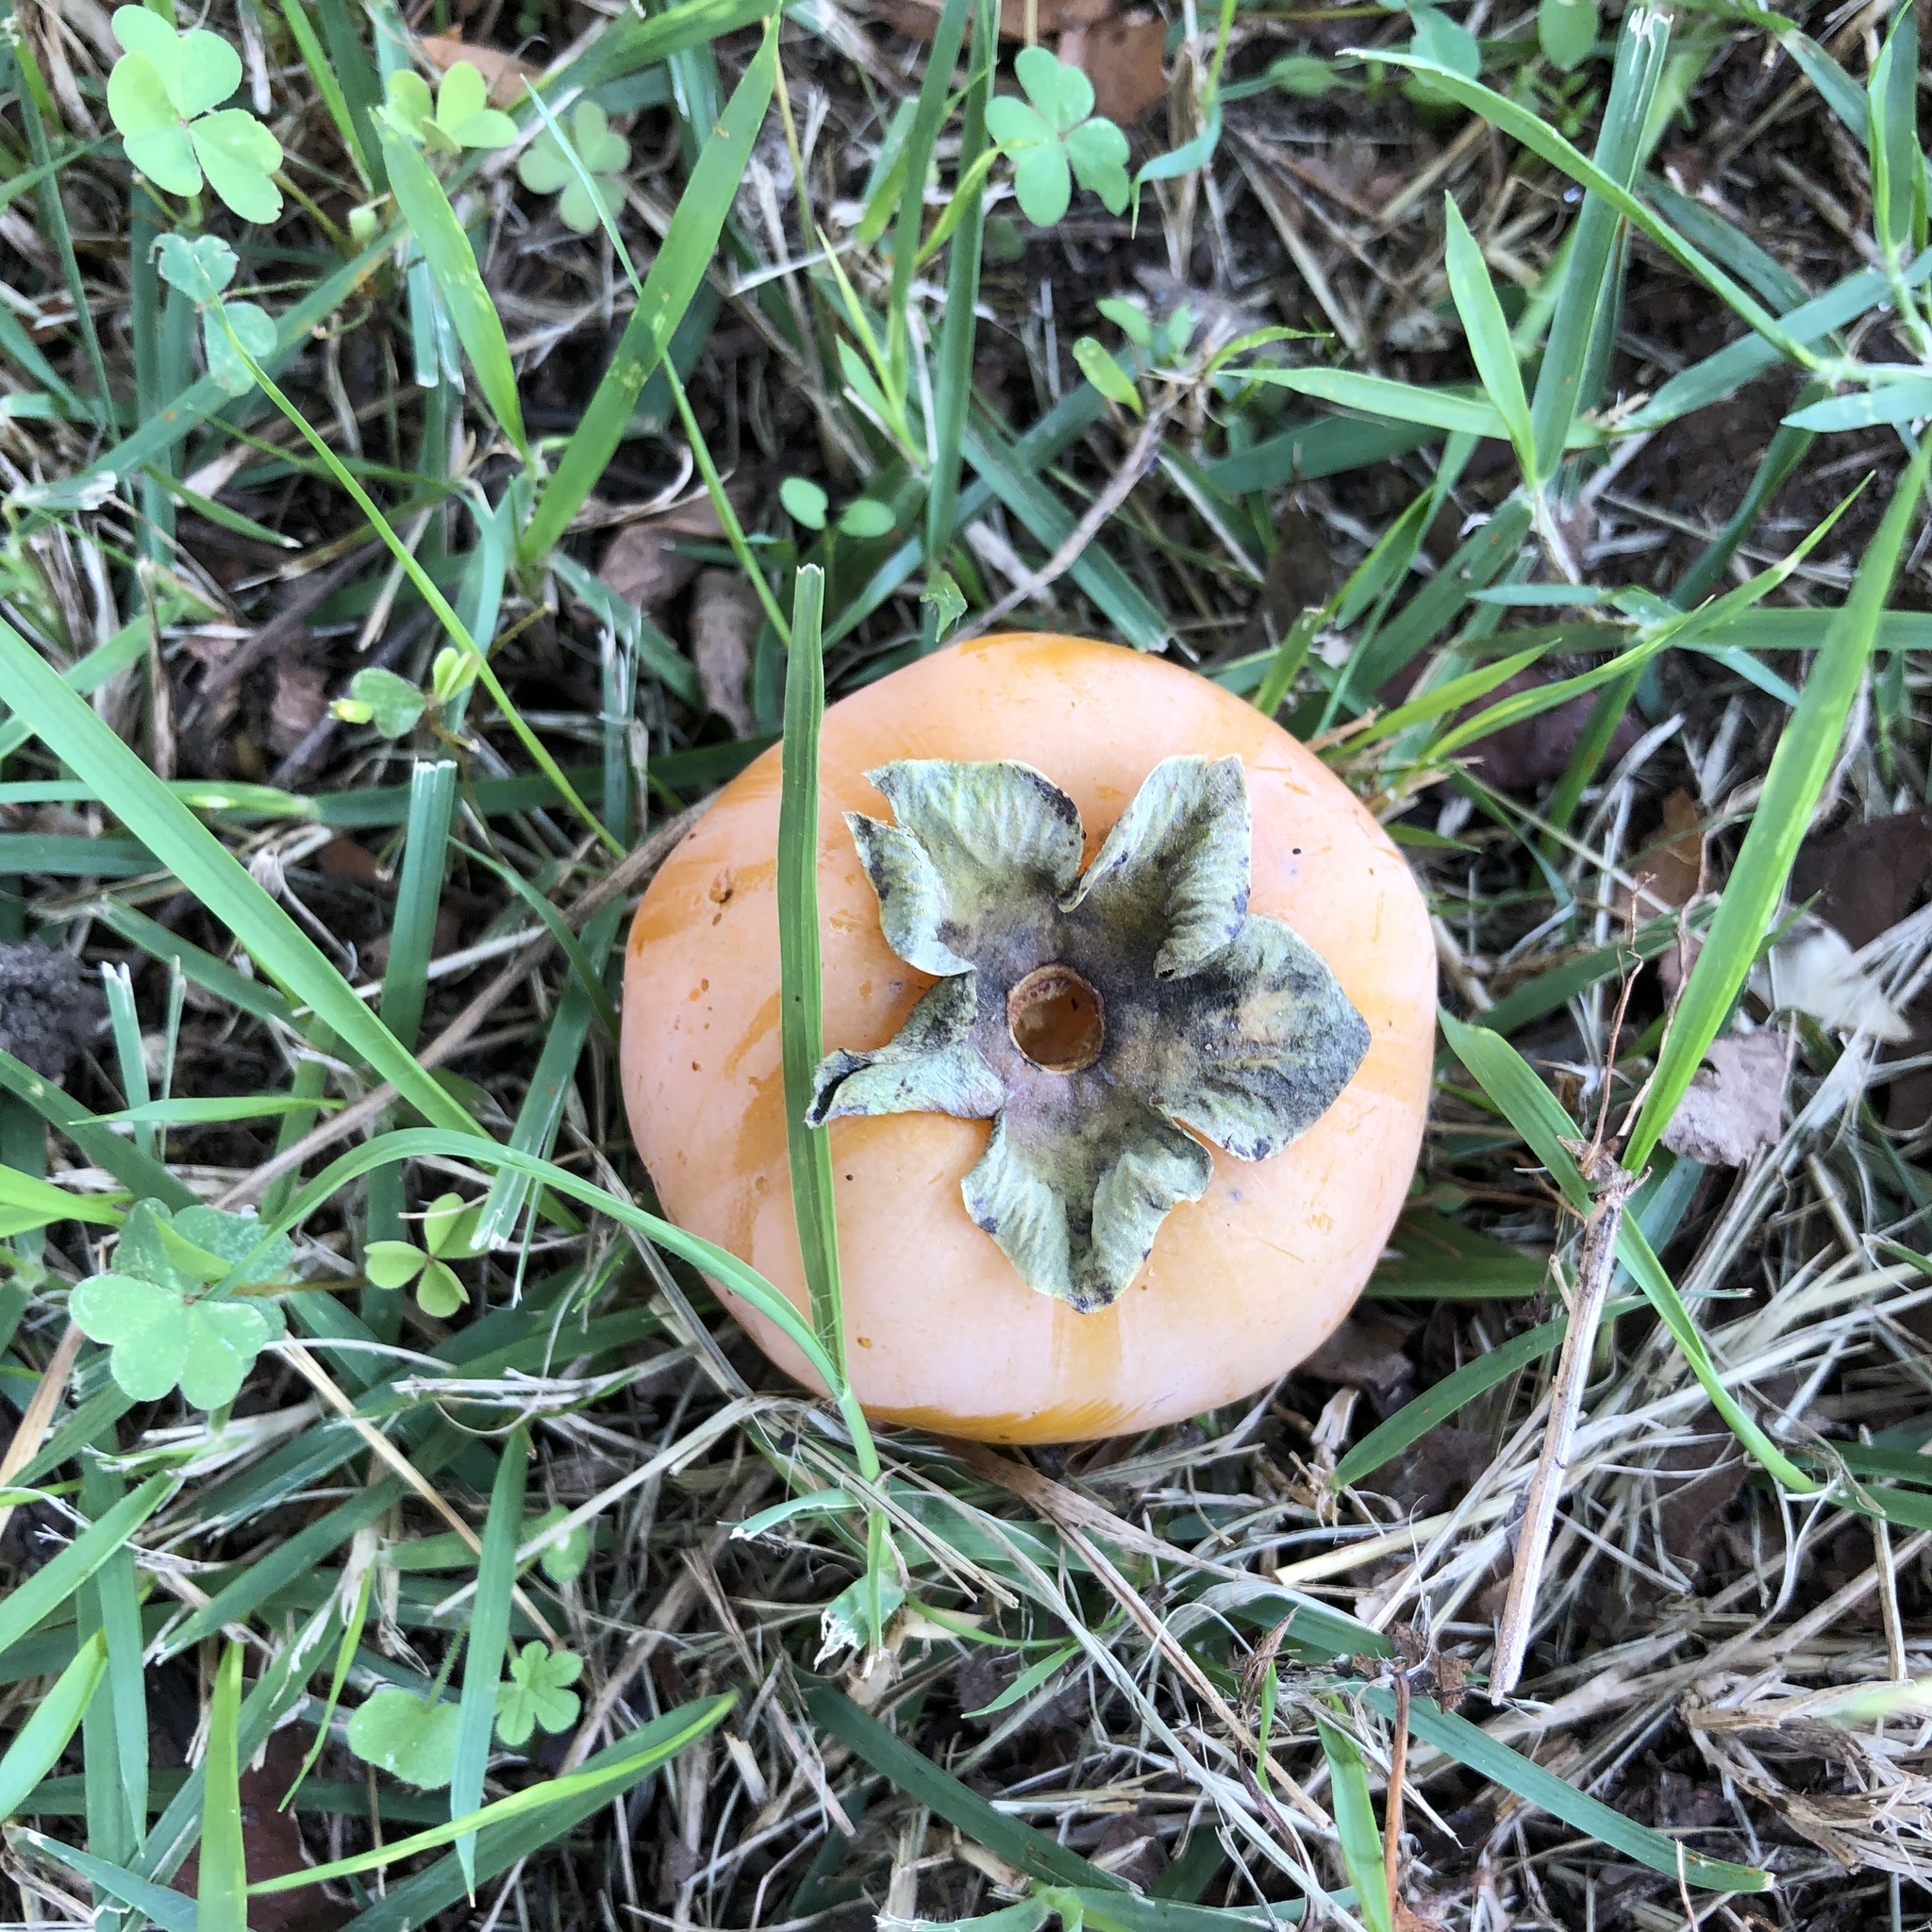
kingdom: Plantae
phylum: Tracheophyta
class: Magnoliopsida
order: Ericales
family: Ebenaceae
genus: Diospyros
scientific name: Diospyros virginiana
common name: Persimmon
